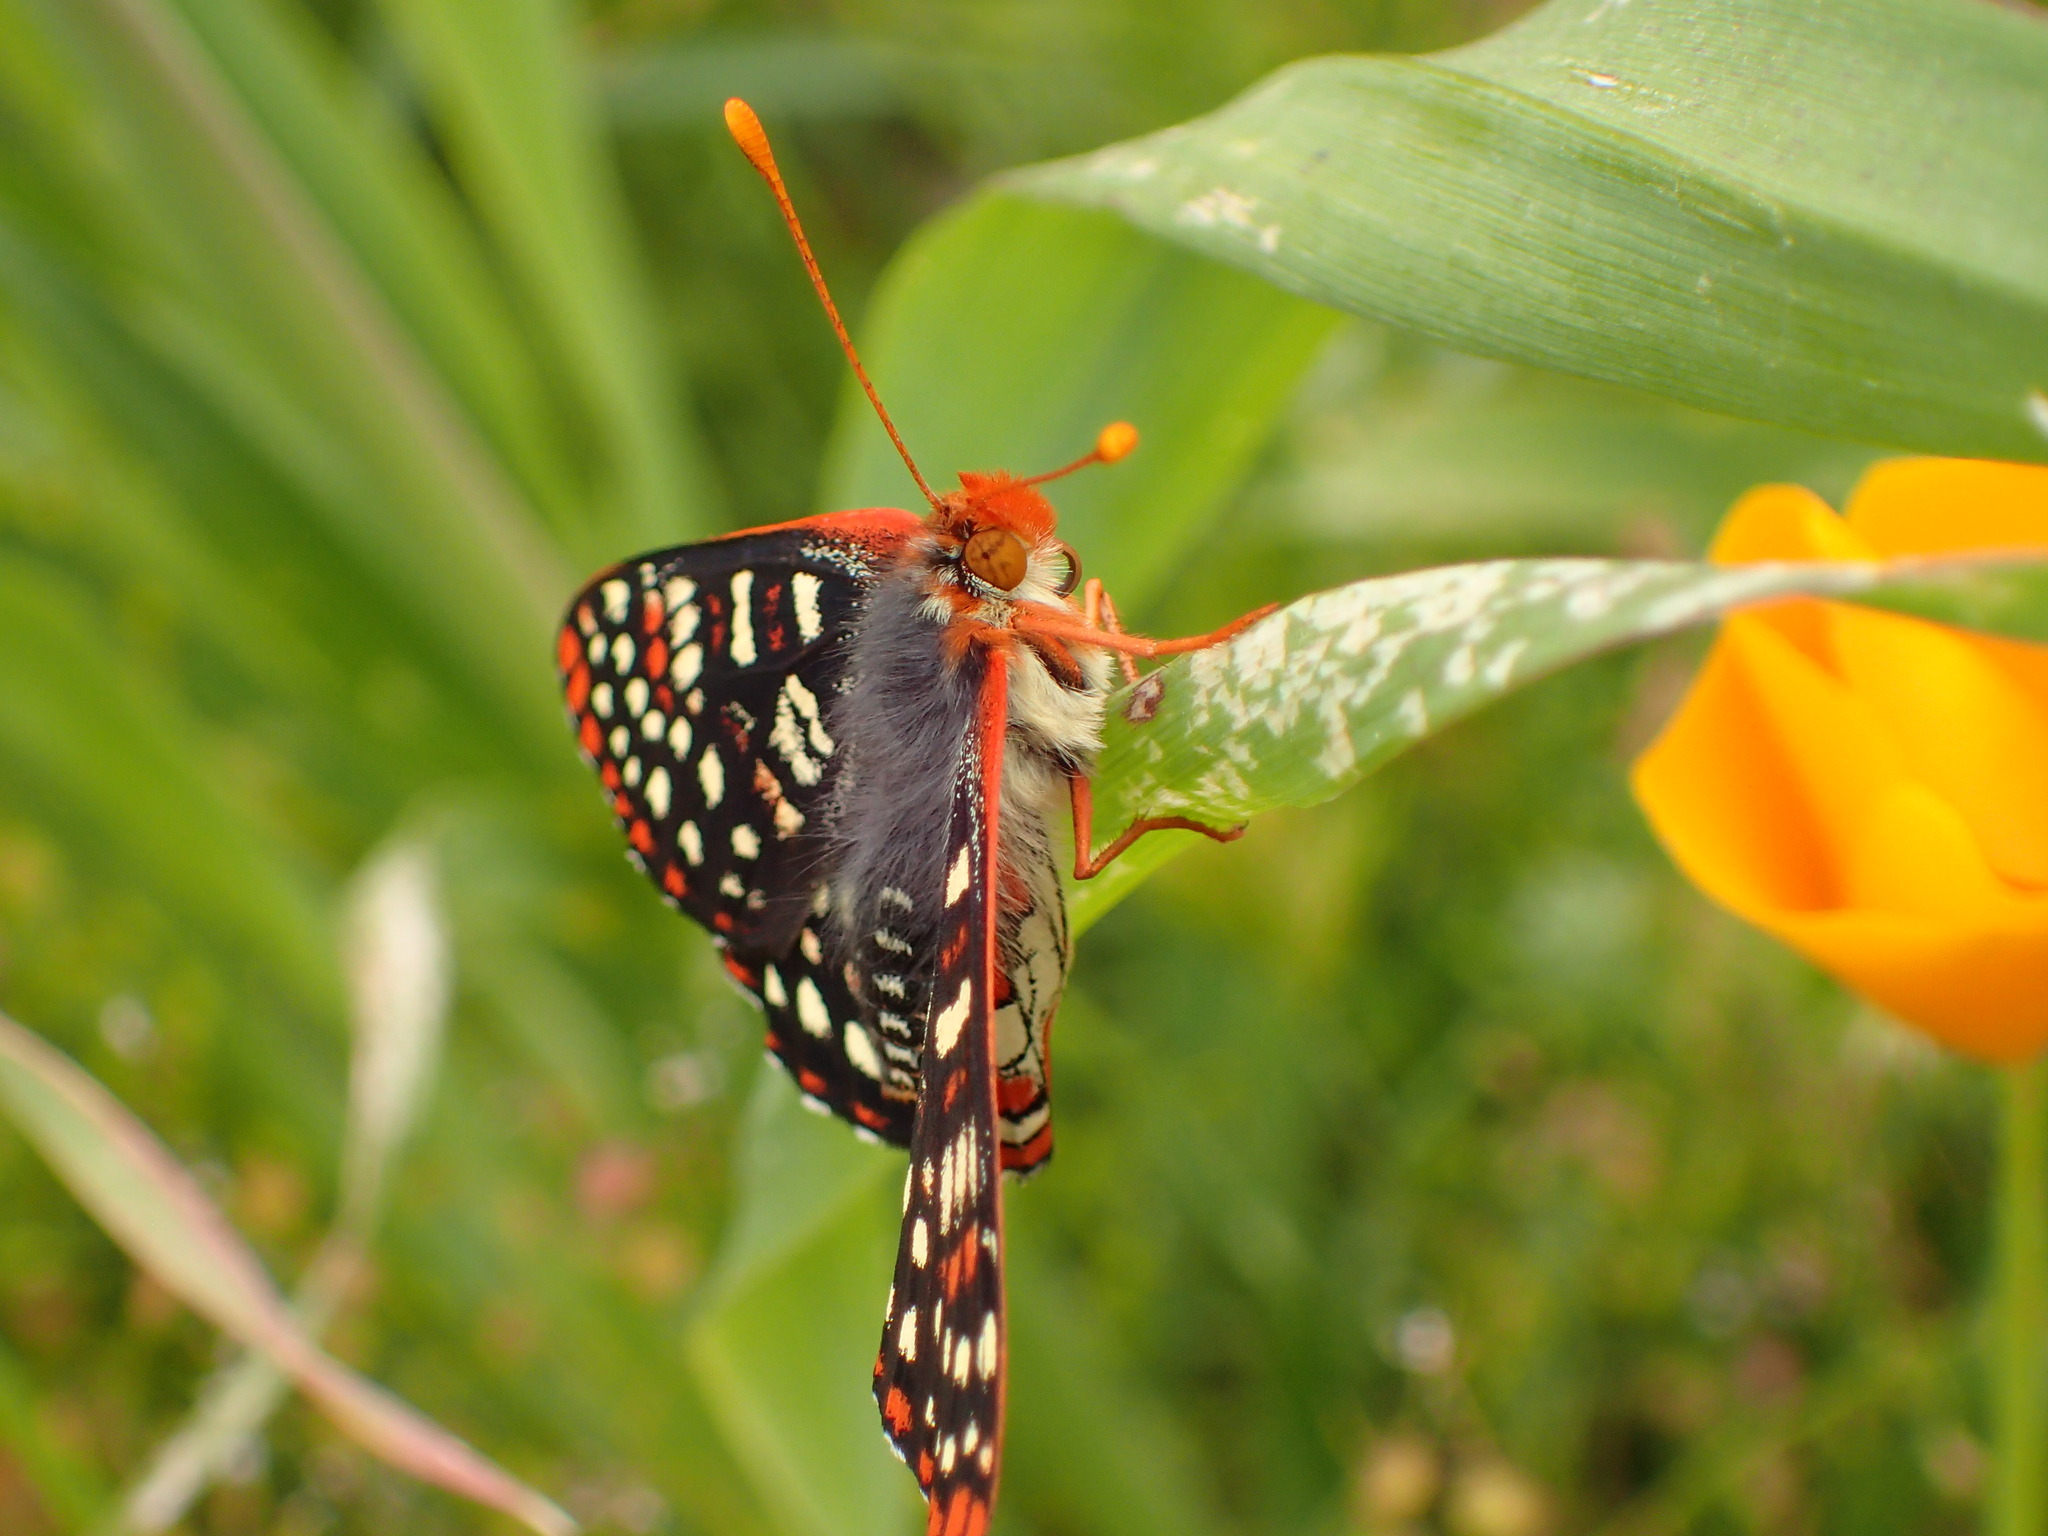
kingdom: Animalia
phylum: Arthropoda
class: Insecta
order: Lepidoptera
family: Nymphalidae
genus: Occidryas
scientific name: Occidryas chalcedona
